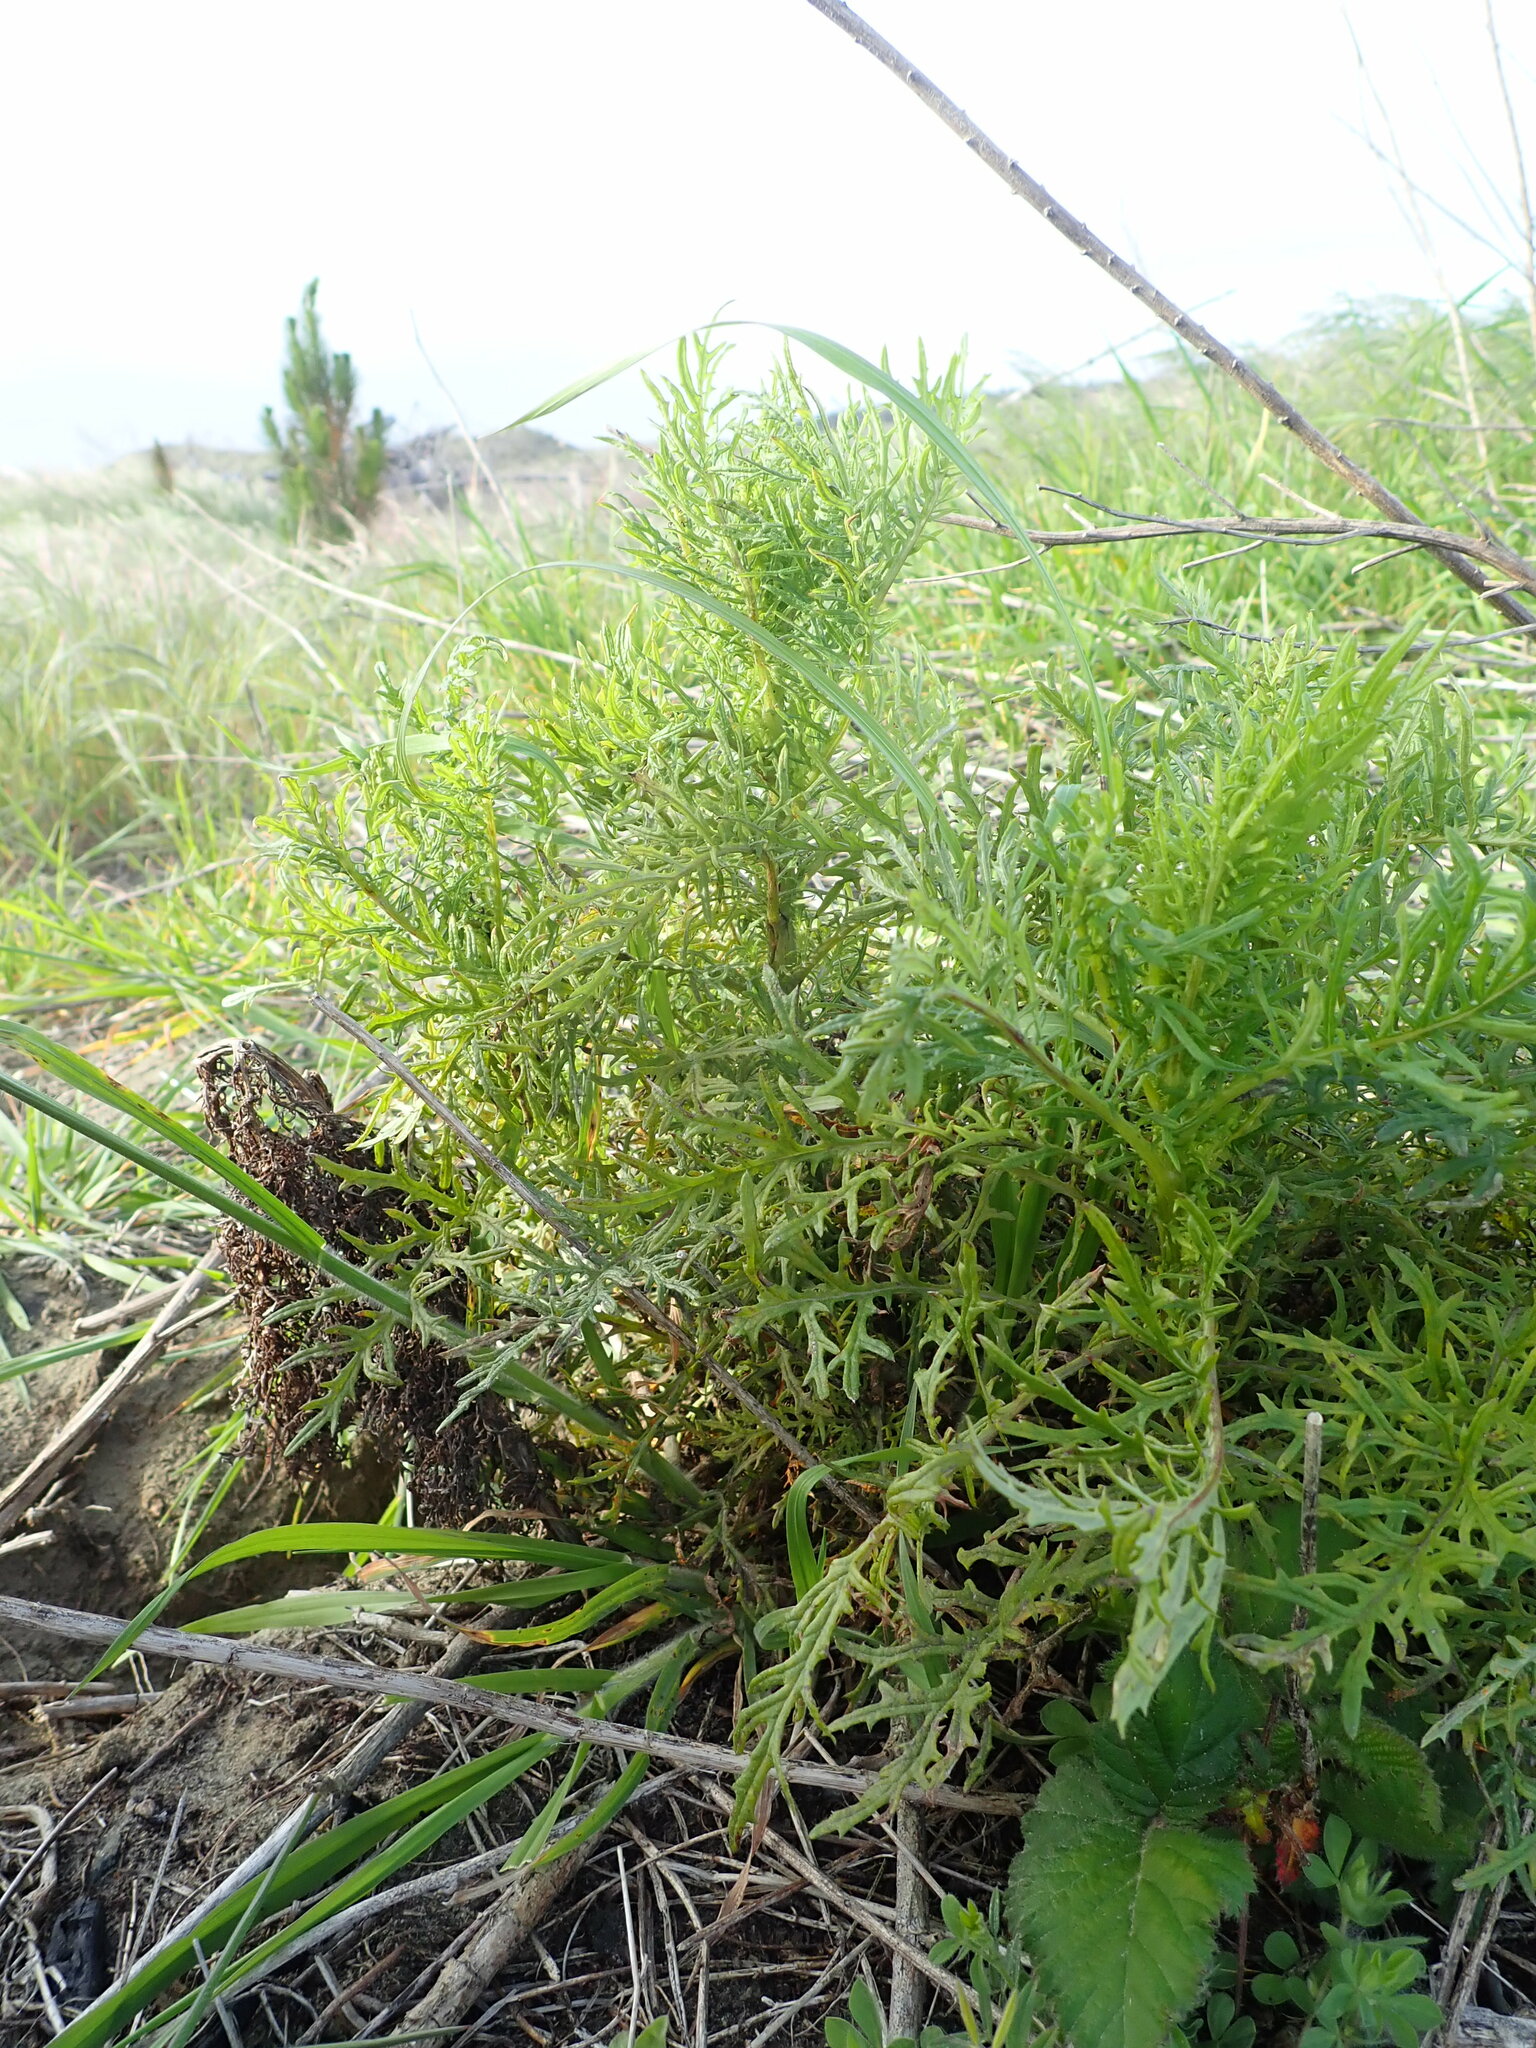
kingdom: Plantae
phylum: Tracheophyta
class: Magnoliopsida
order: Asterales
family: Asteraceae
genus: Senecio
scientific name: Senecio bipinnatisectus
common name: Australian fireweed
